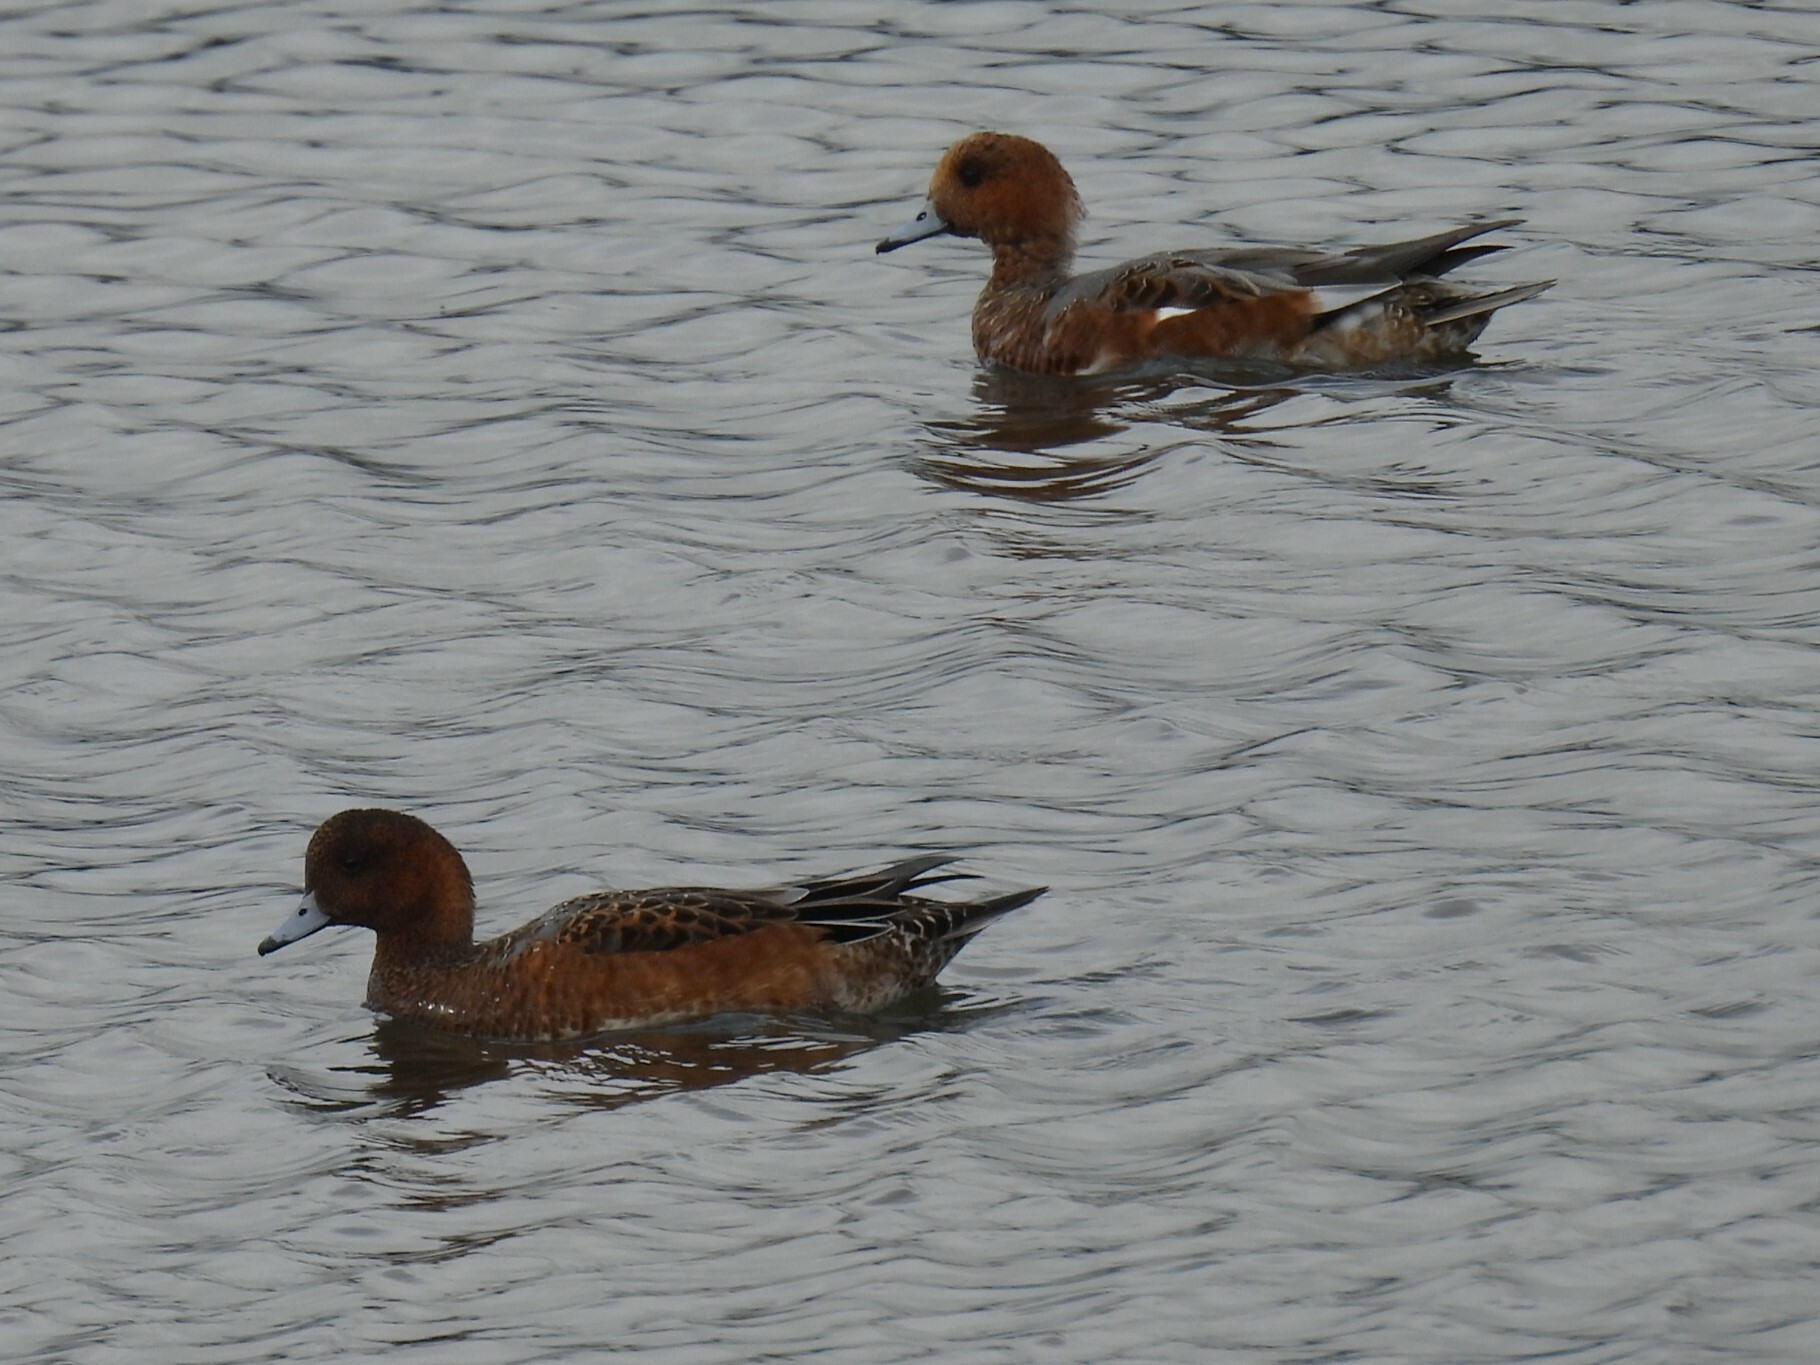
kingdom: Animalia
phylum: Chordata
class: Aves
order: Anseriformes
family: Anatidae
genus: Mareca
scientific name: Mareca penelope
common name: Eurasian wigeon
